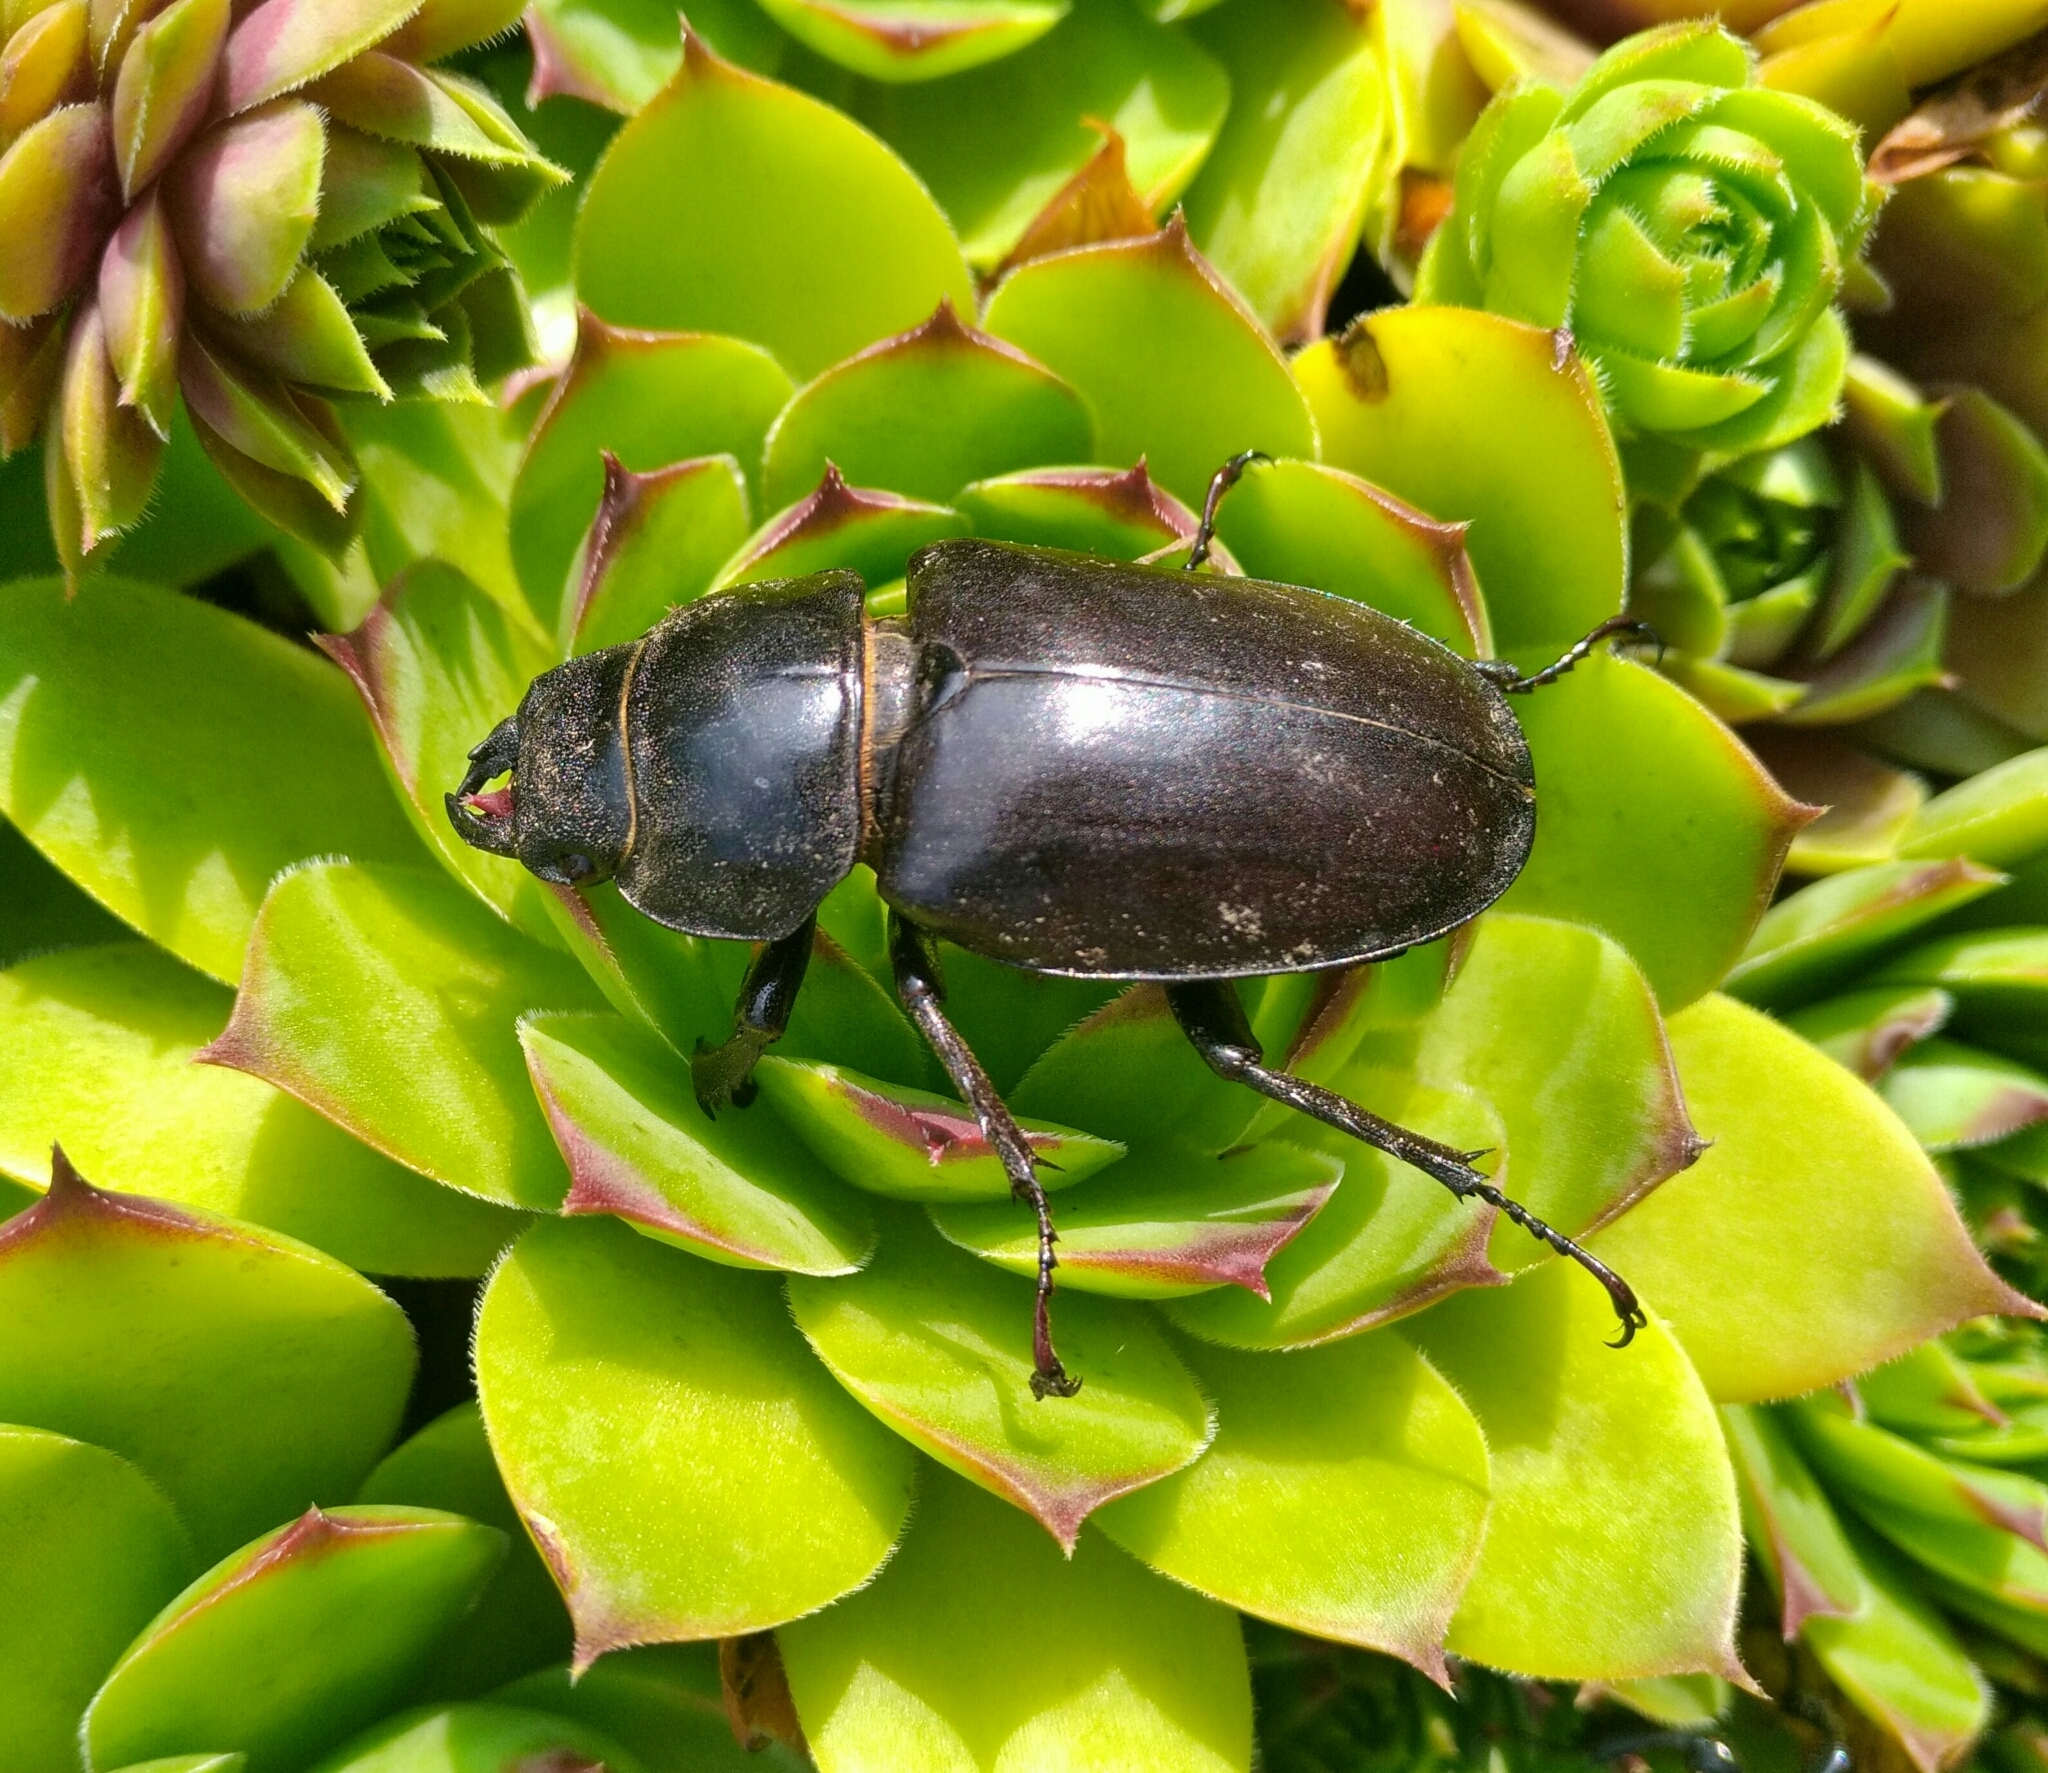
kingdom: Animalia
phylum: Arthropoda
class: Insecta
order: Coleoptera
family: Lucanidae
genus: Lucanus
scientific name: Lucanus cervus
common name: Stag beetle
